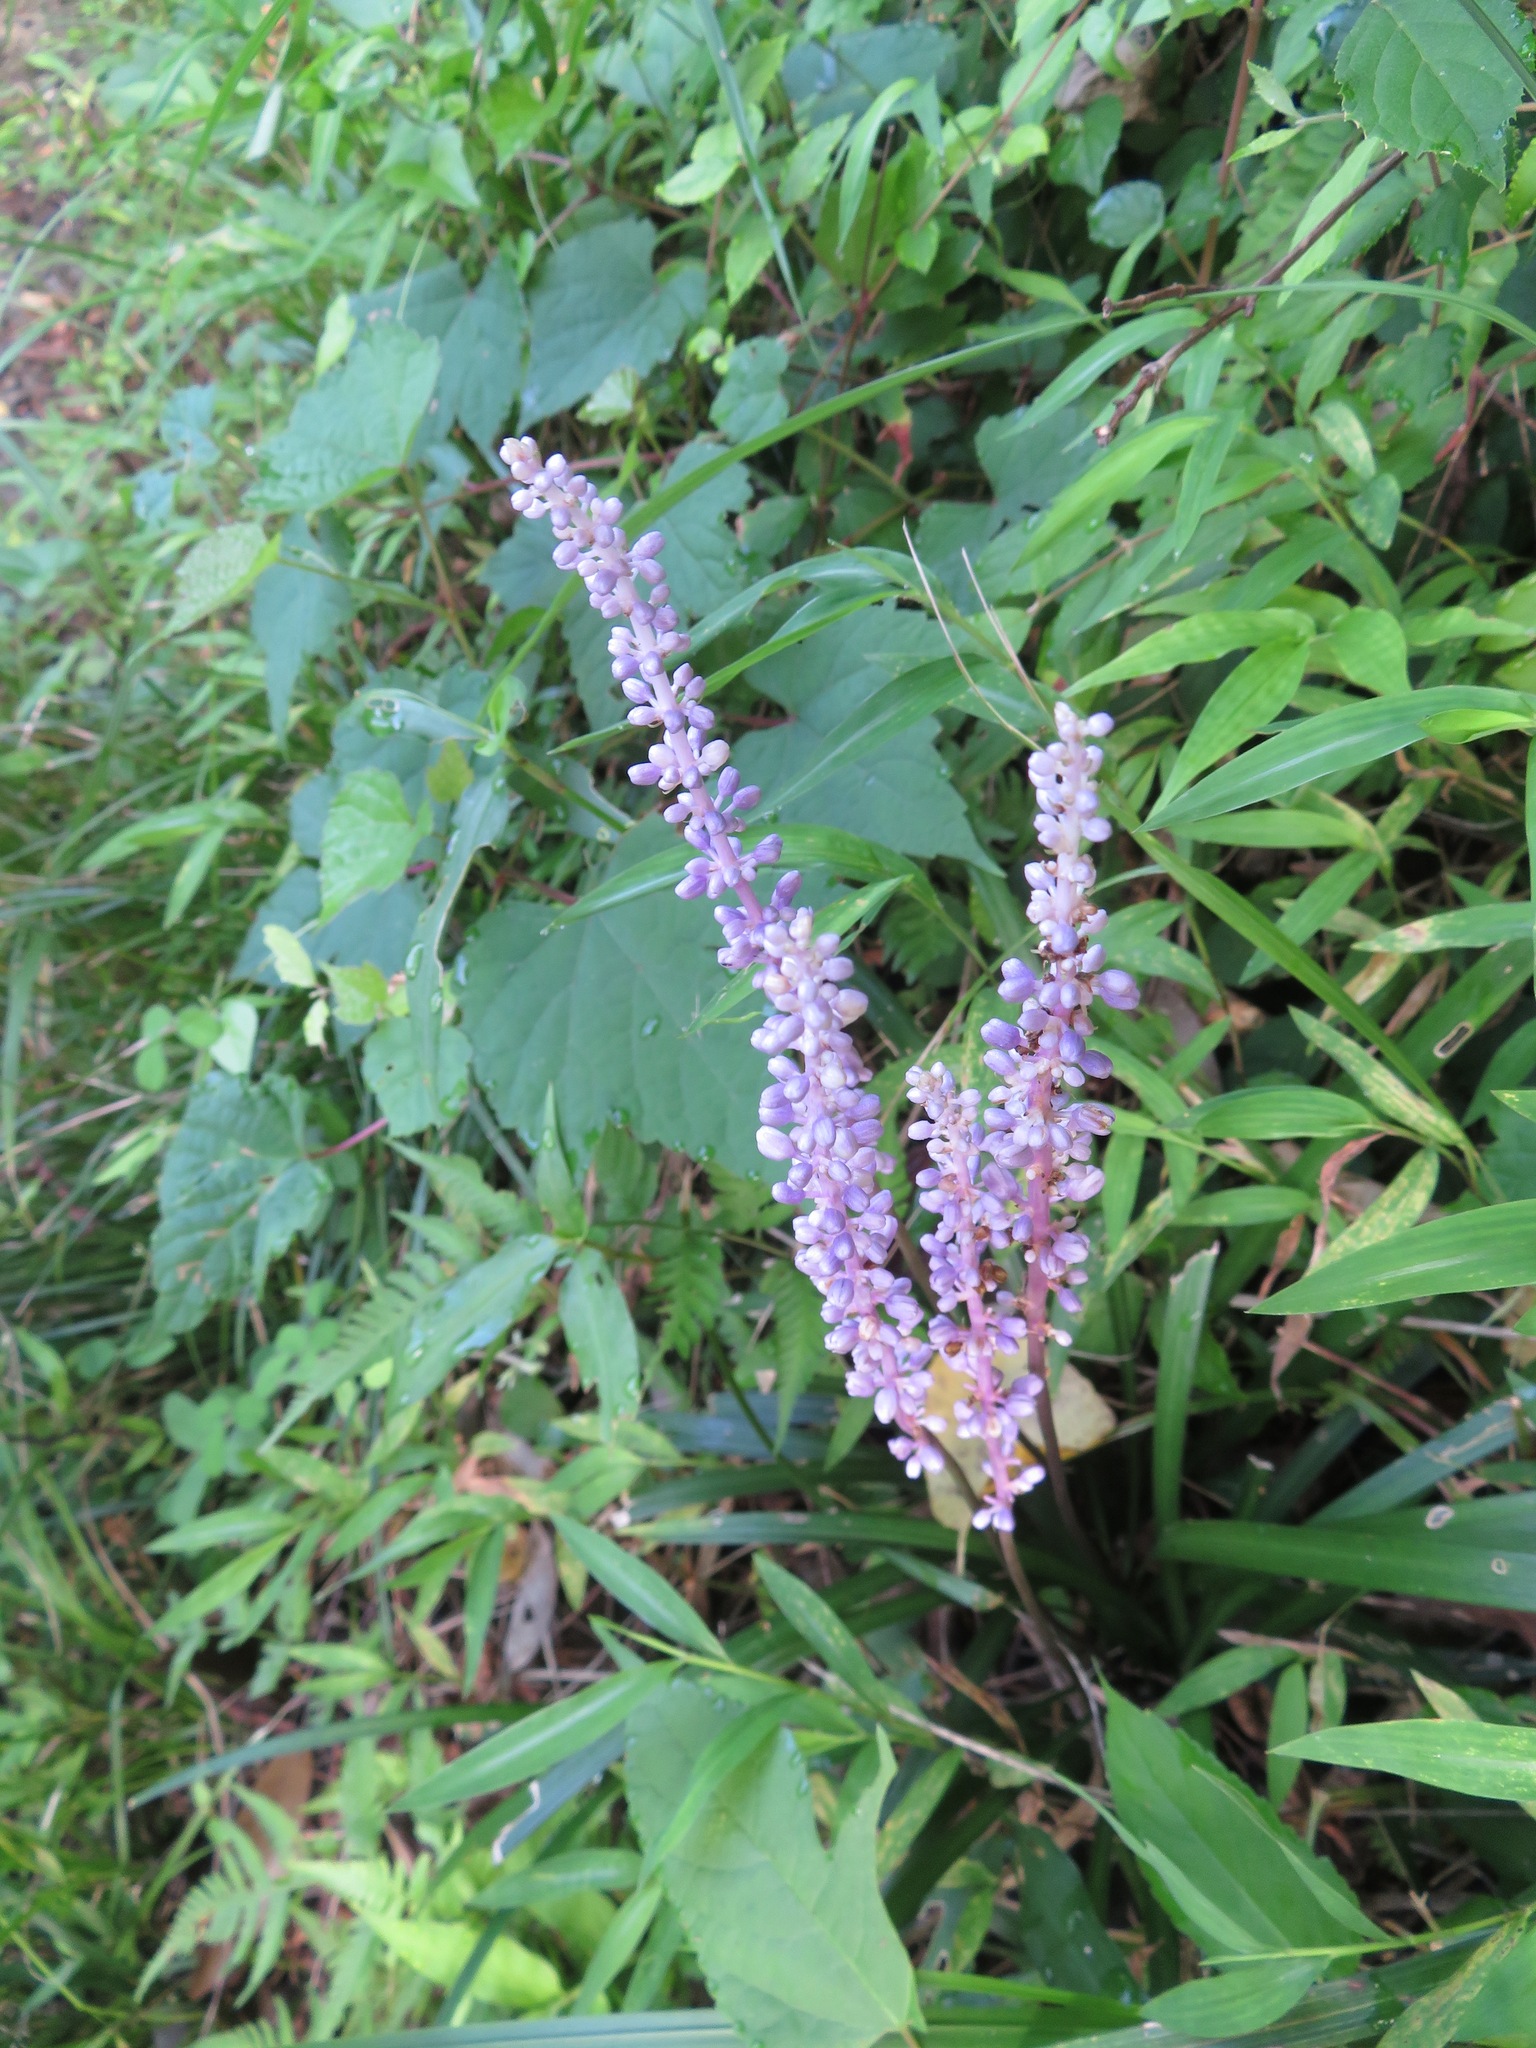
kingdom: Plantae
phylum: Tracheophyta
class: Liliopsida
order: Asparagales
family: Asparagaceae
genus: Liriope
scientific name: Liriope muscari
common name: Big blue lilyturf
